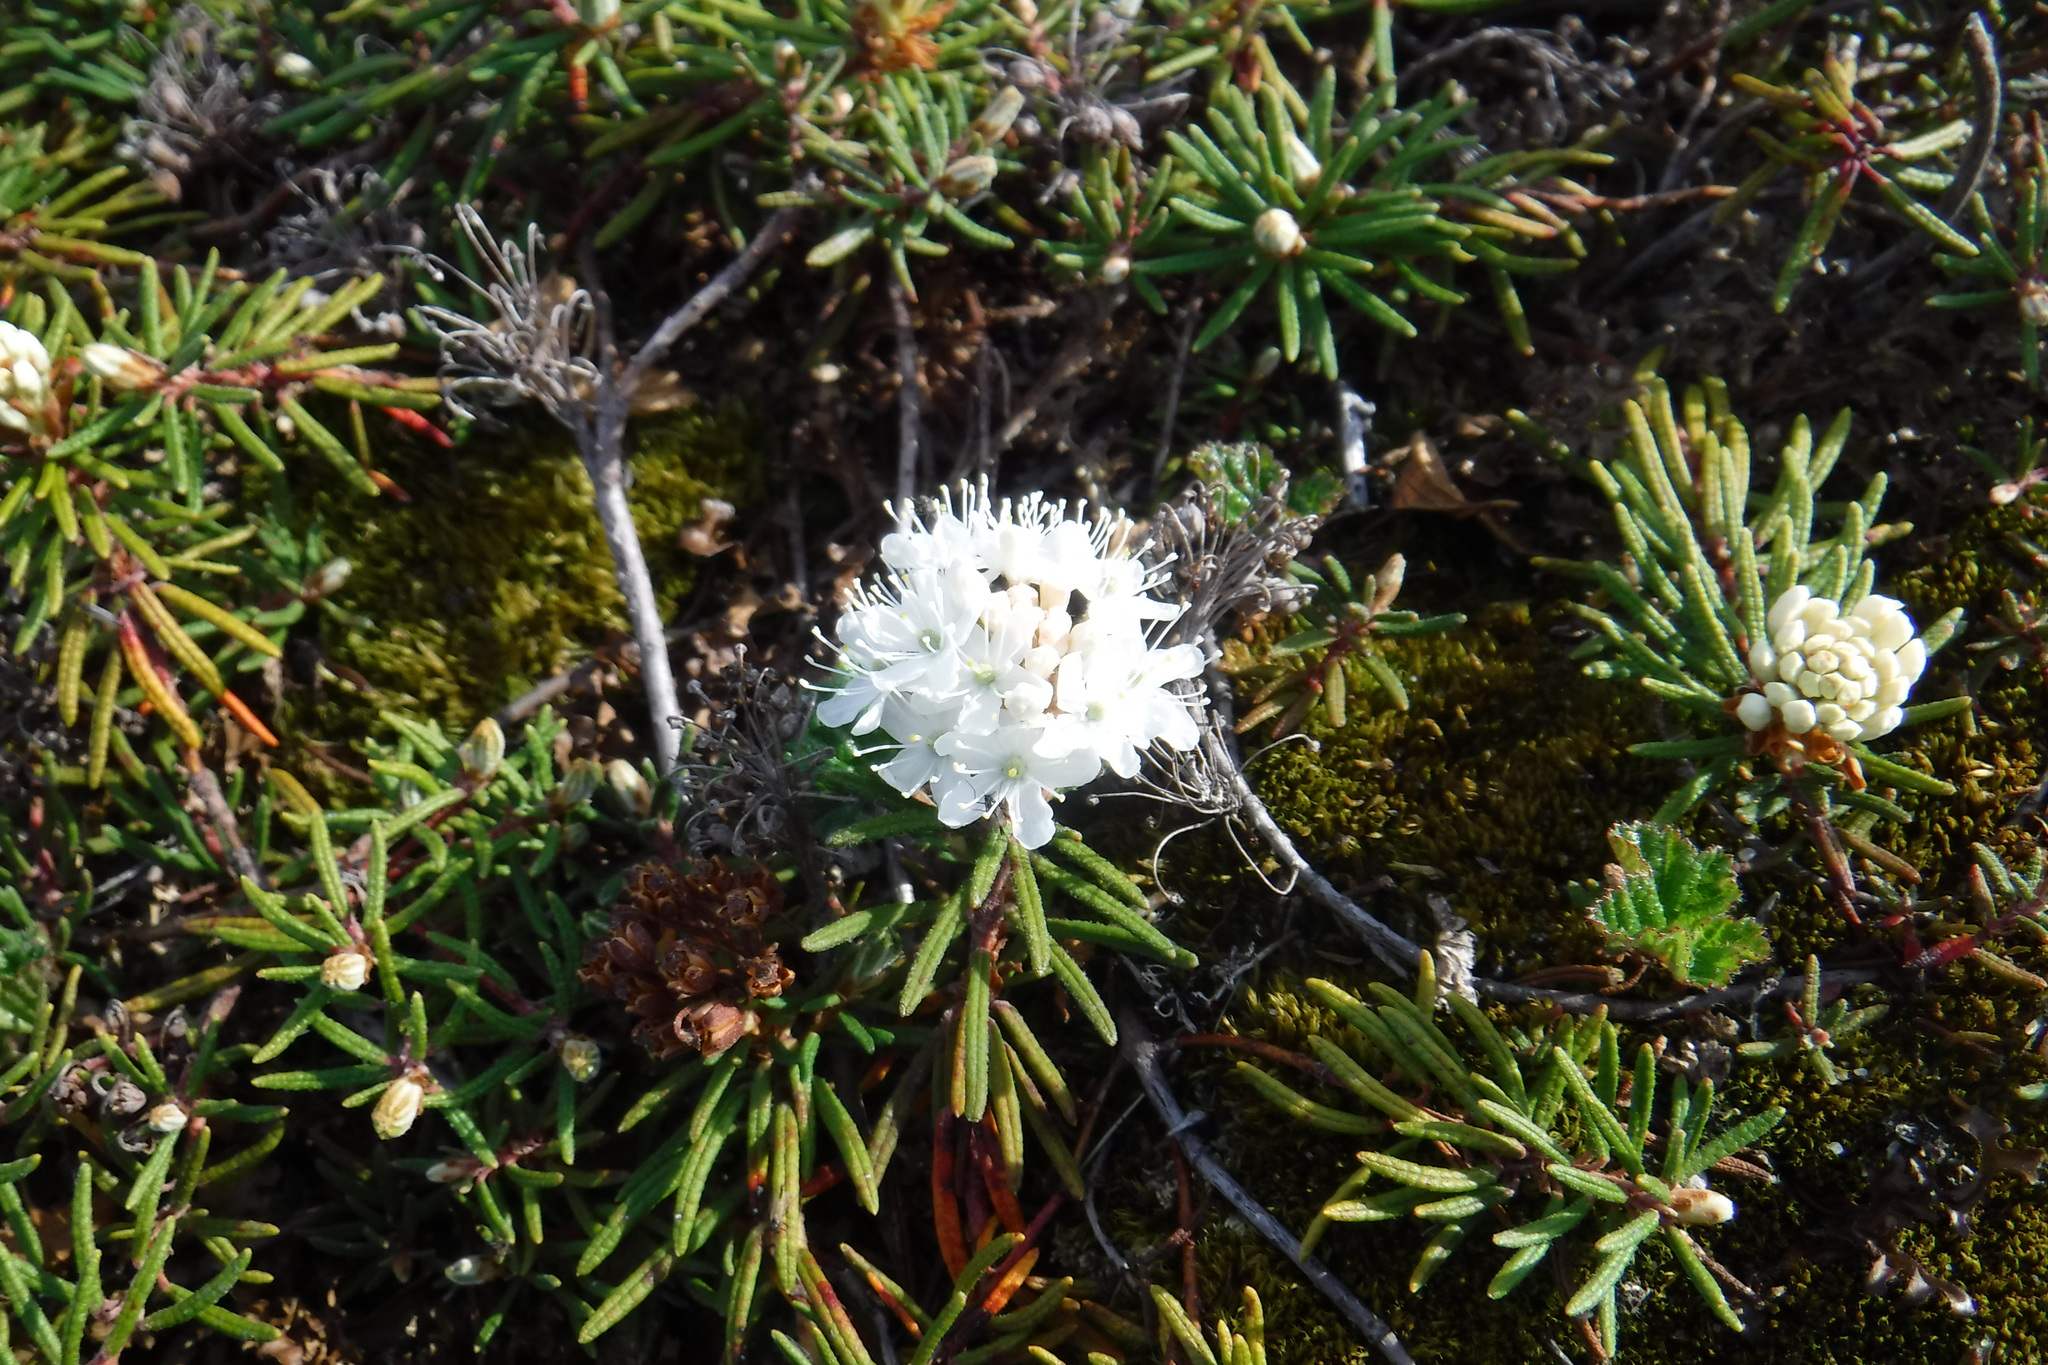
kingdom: Plantae
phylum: Tracheophyta
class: Magnoliopsida
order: Ericales
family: Ericaceae
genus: Rhododendron
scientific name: Rhododendron tomentosum
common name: Marsh labrador tea
